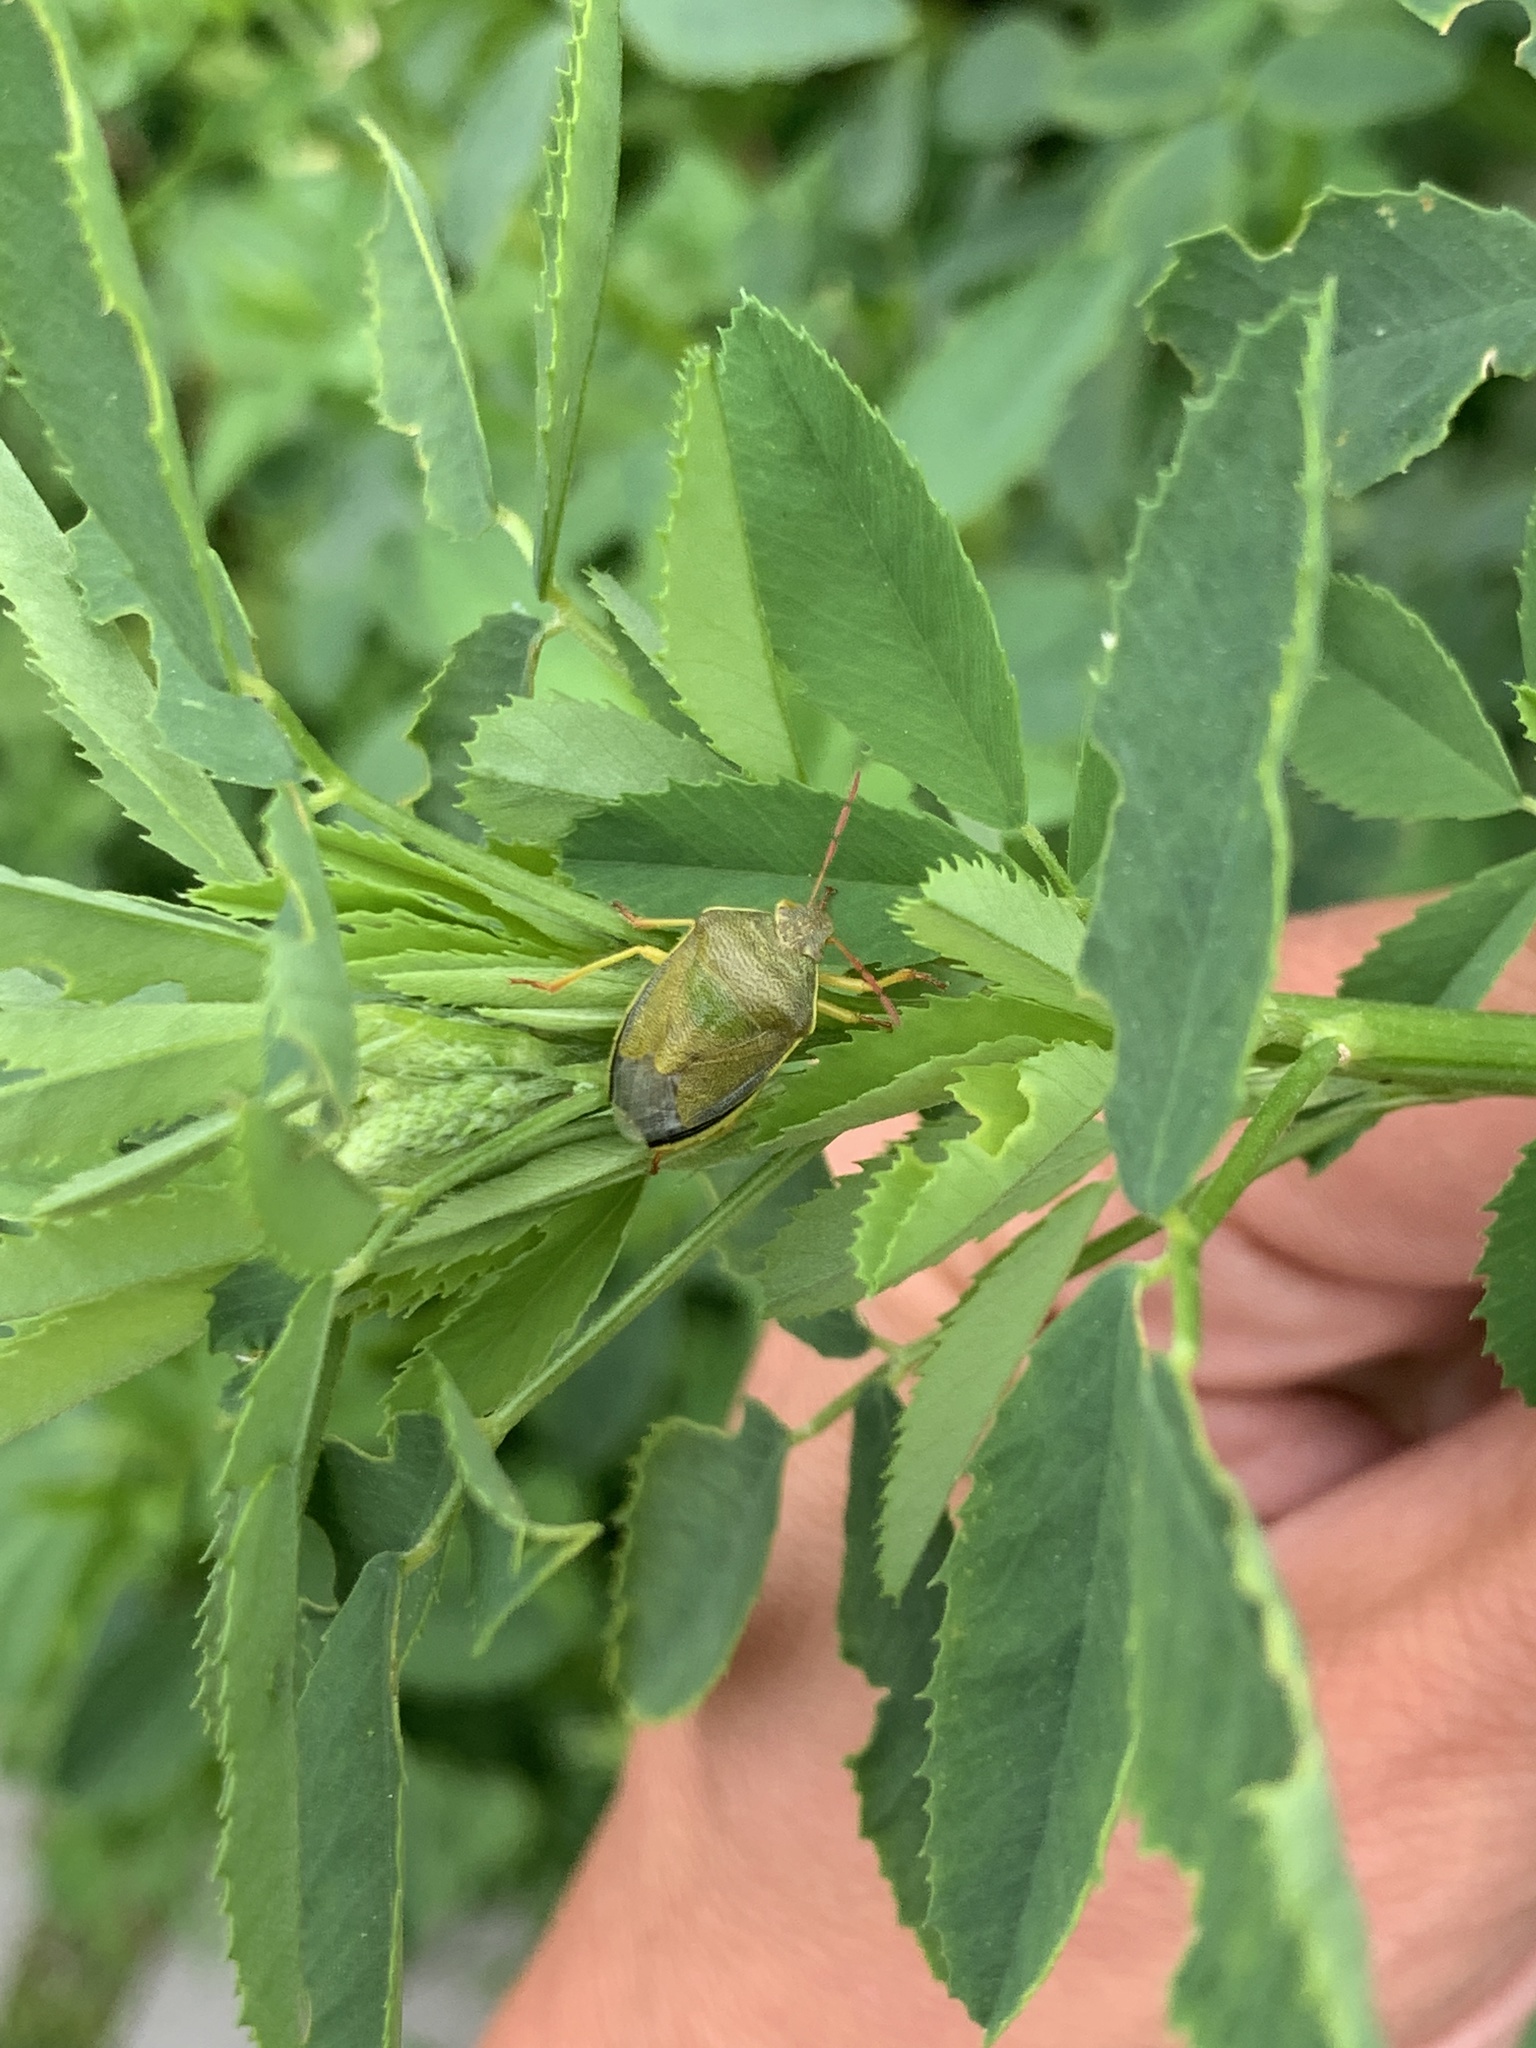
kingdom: Animalia
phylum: Arthropoda
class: Insecta
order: Hemiptera
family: Pentatomidae
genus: Piezodorus
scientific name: Piezodorus lituratus
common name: Stink bug
